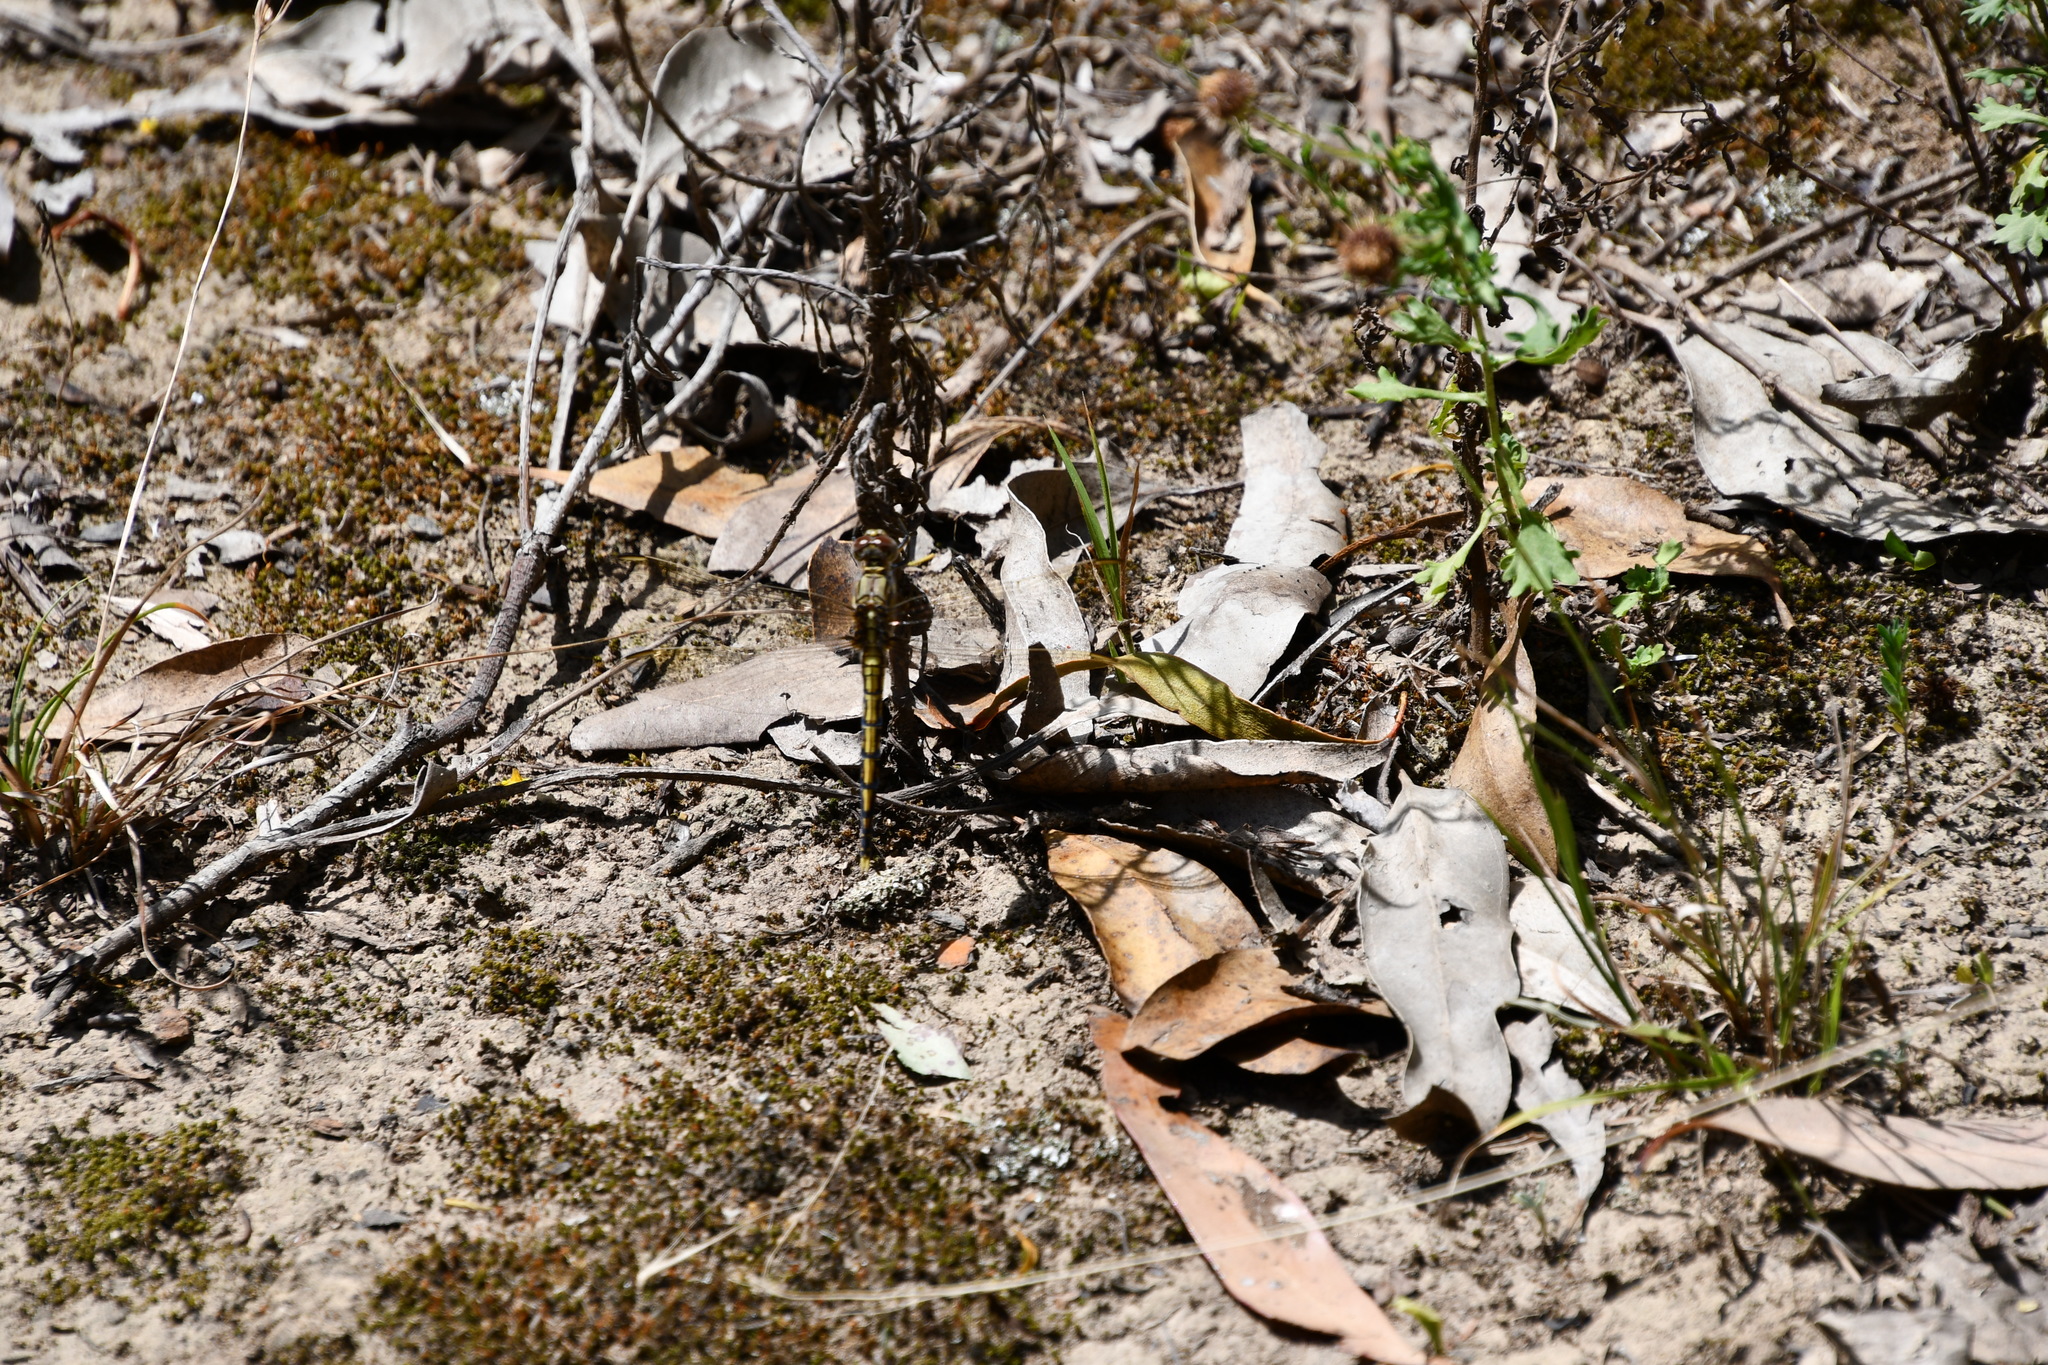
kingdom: Animalia
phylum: Arthropoda
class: Insecta
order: Odonata
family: Libellulidae
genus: Orthetrum
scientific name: Orthetrum caledonicum
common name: Blue skimmer
